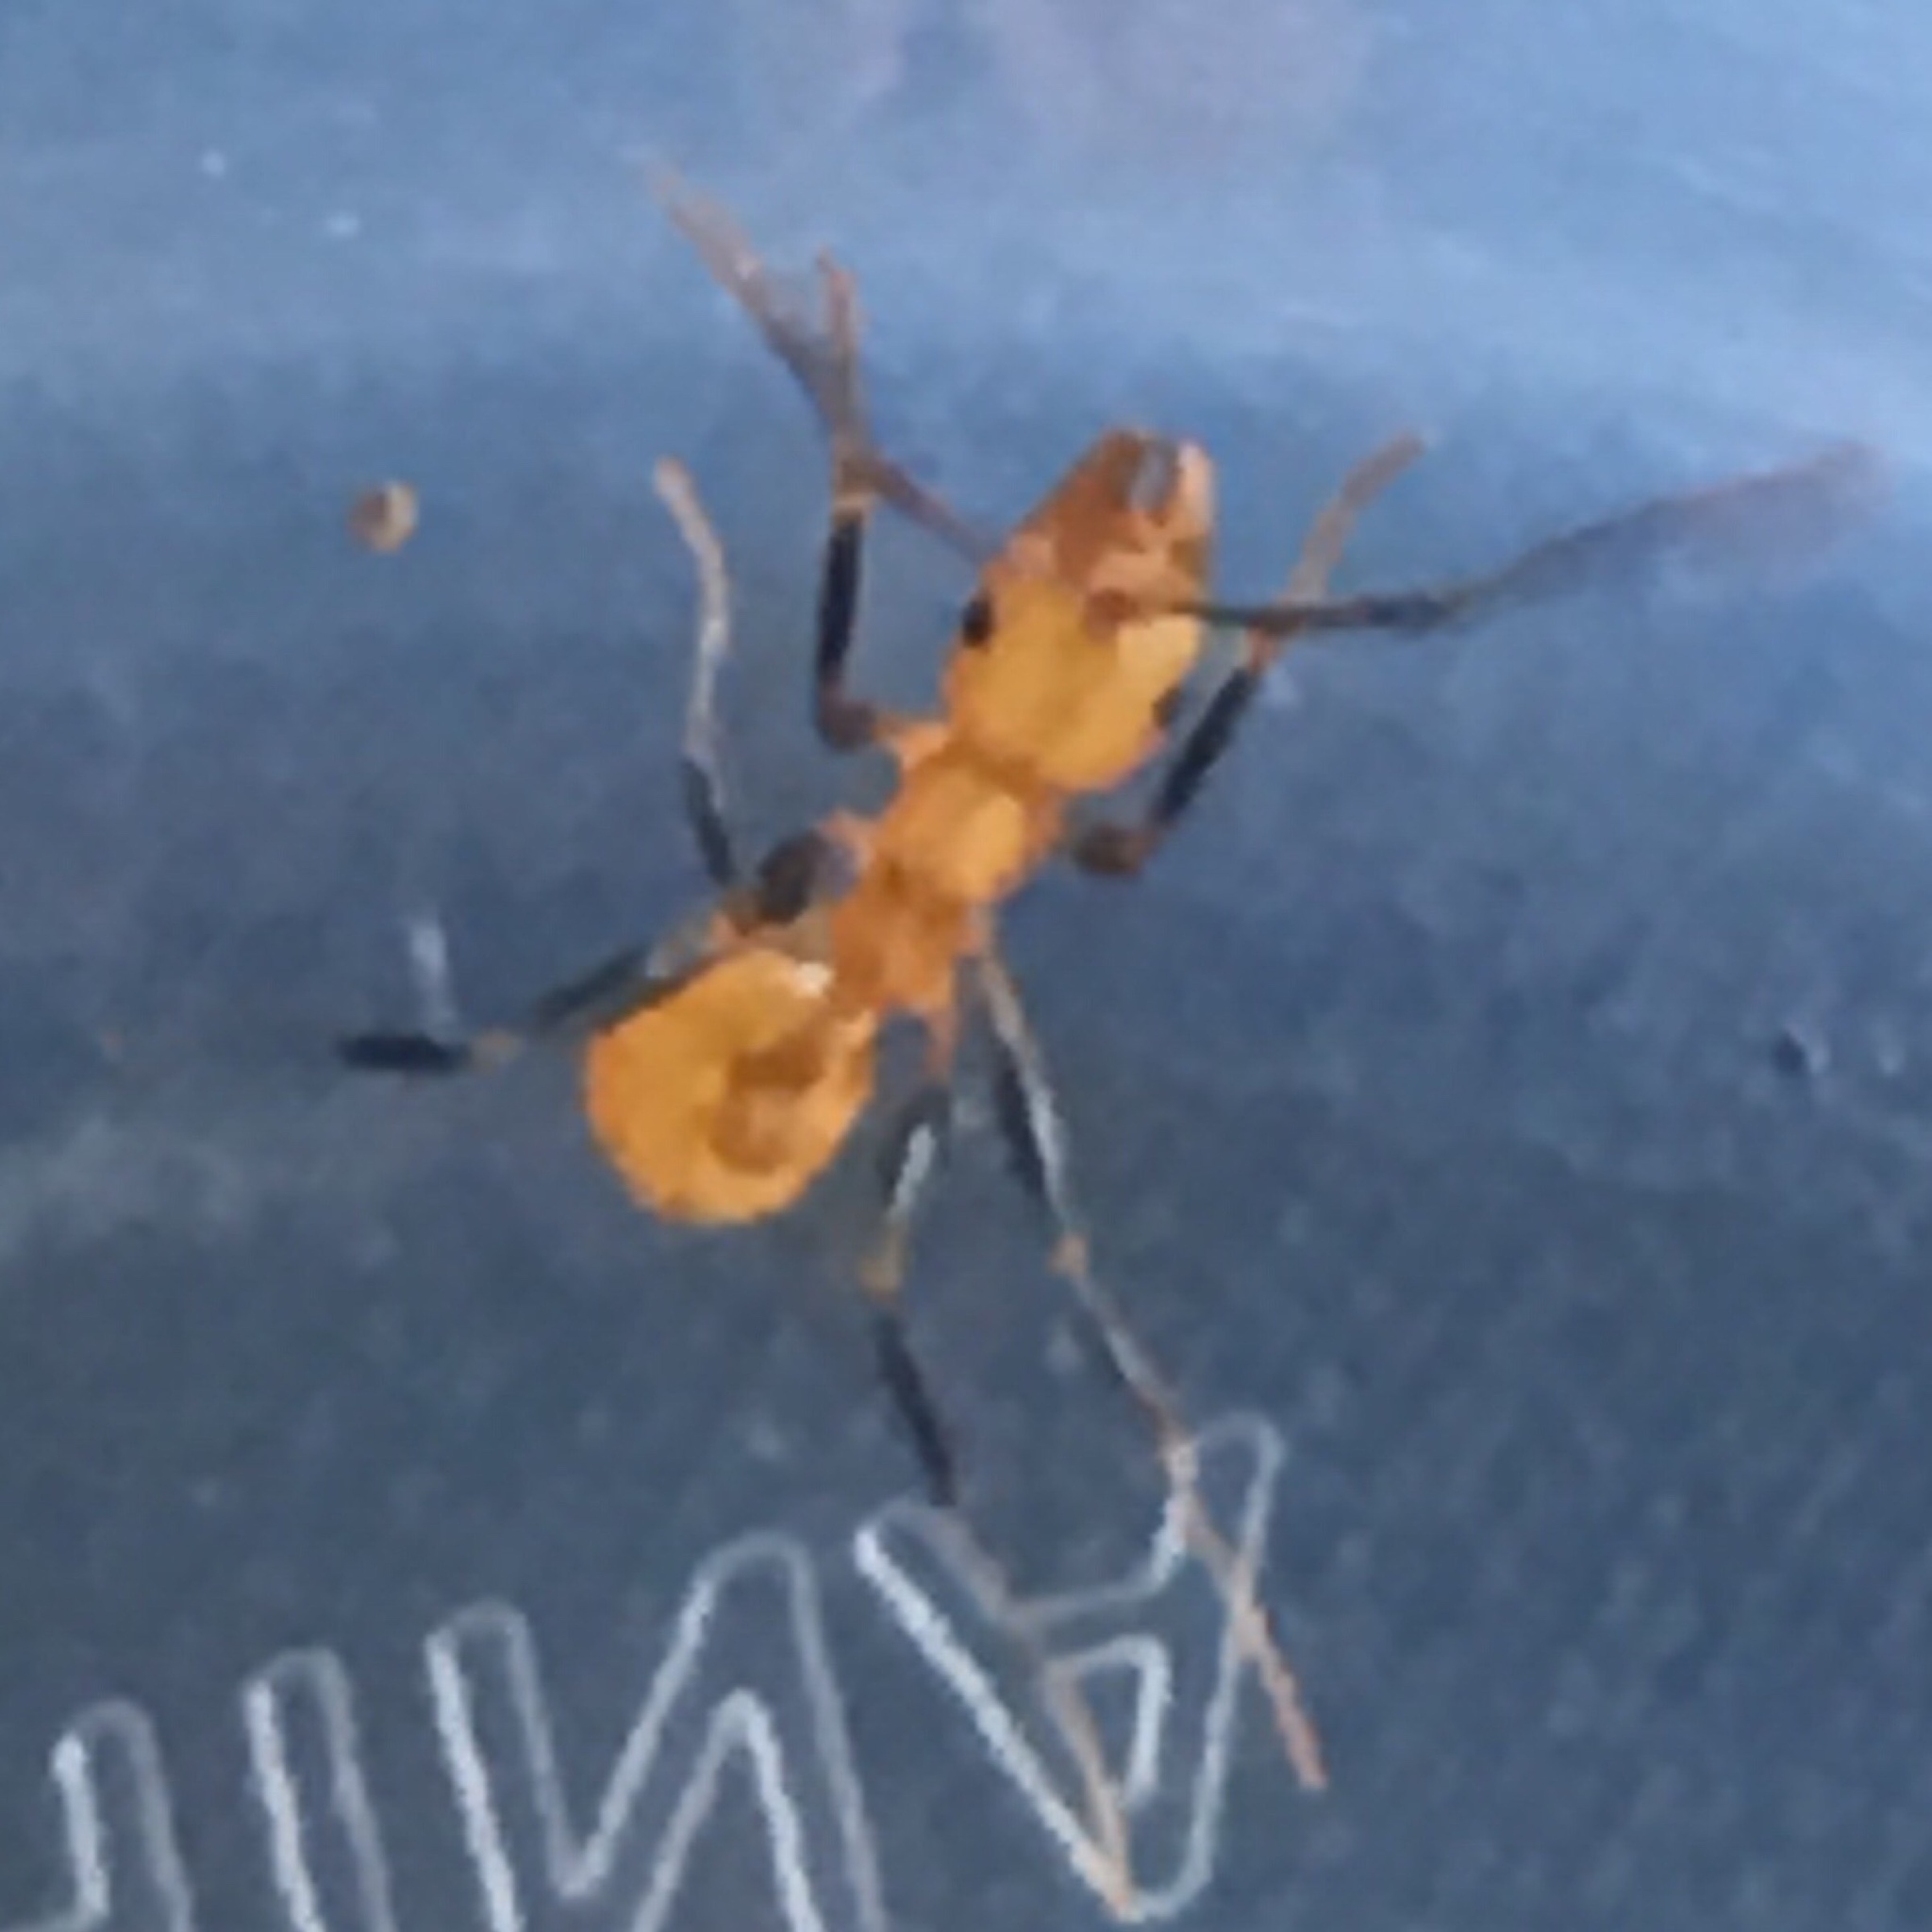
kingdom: Animalia
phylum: Arthropoda
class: Insecta
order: Hymenoptera
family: Formicidae
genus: Aphaenogaster
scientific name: Aphaenogaster lamellidens
